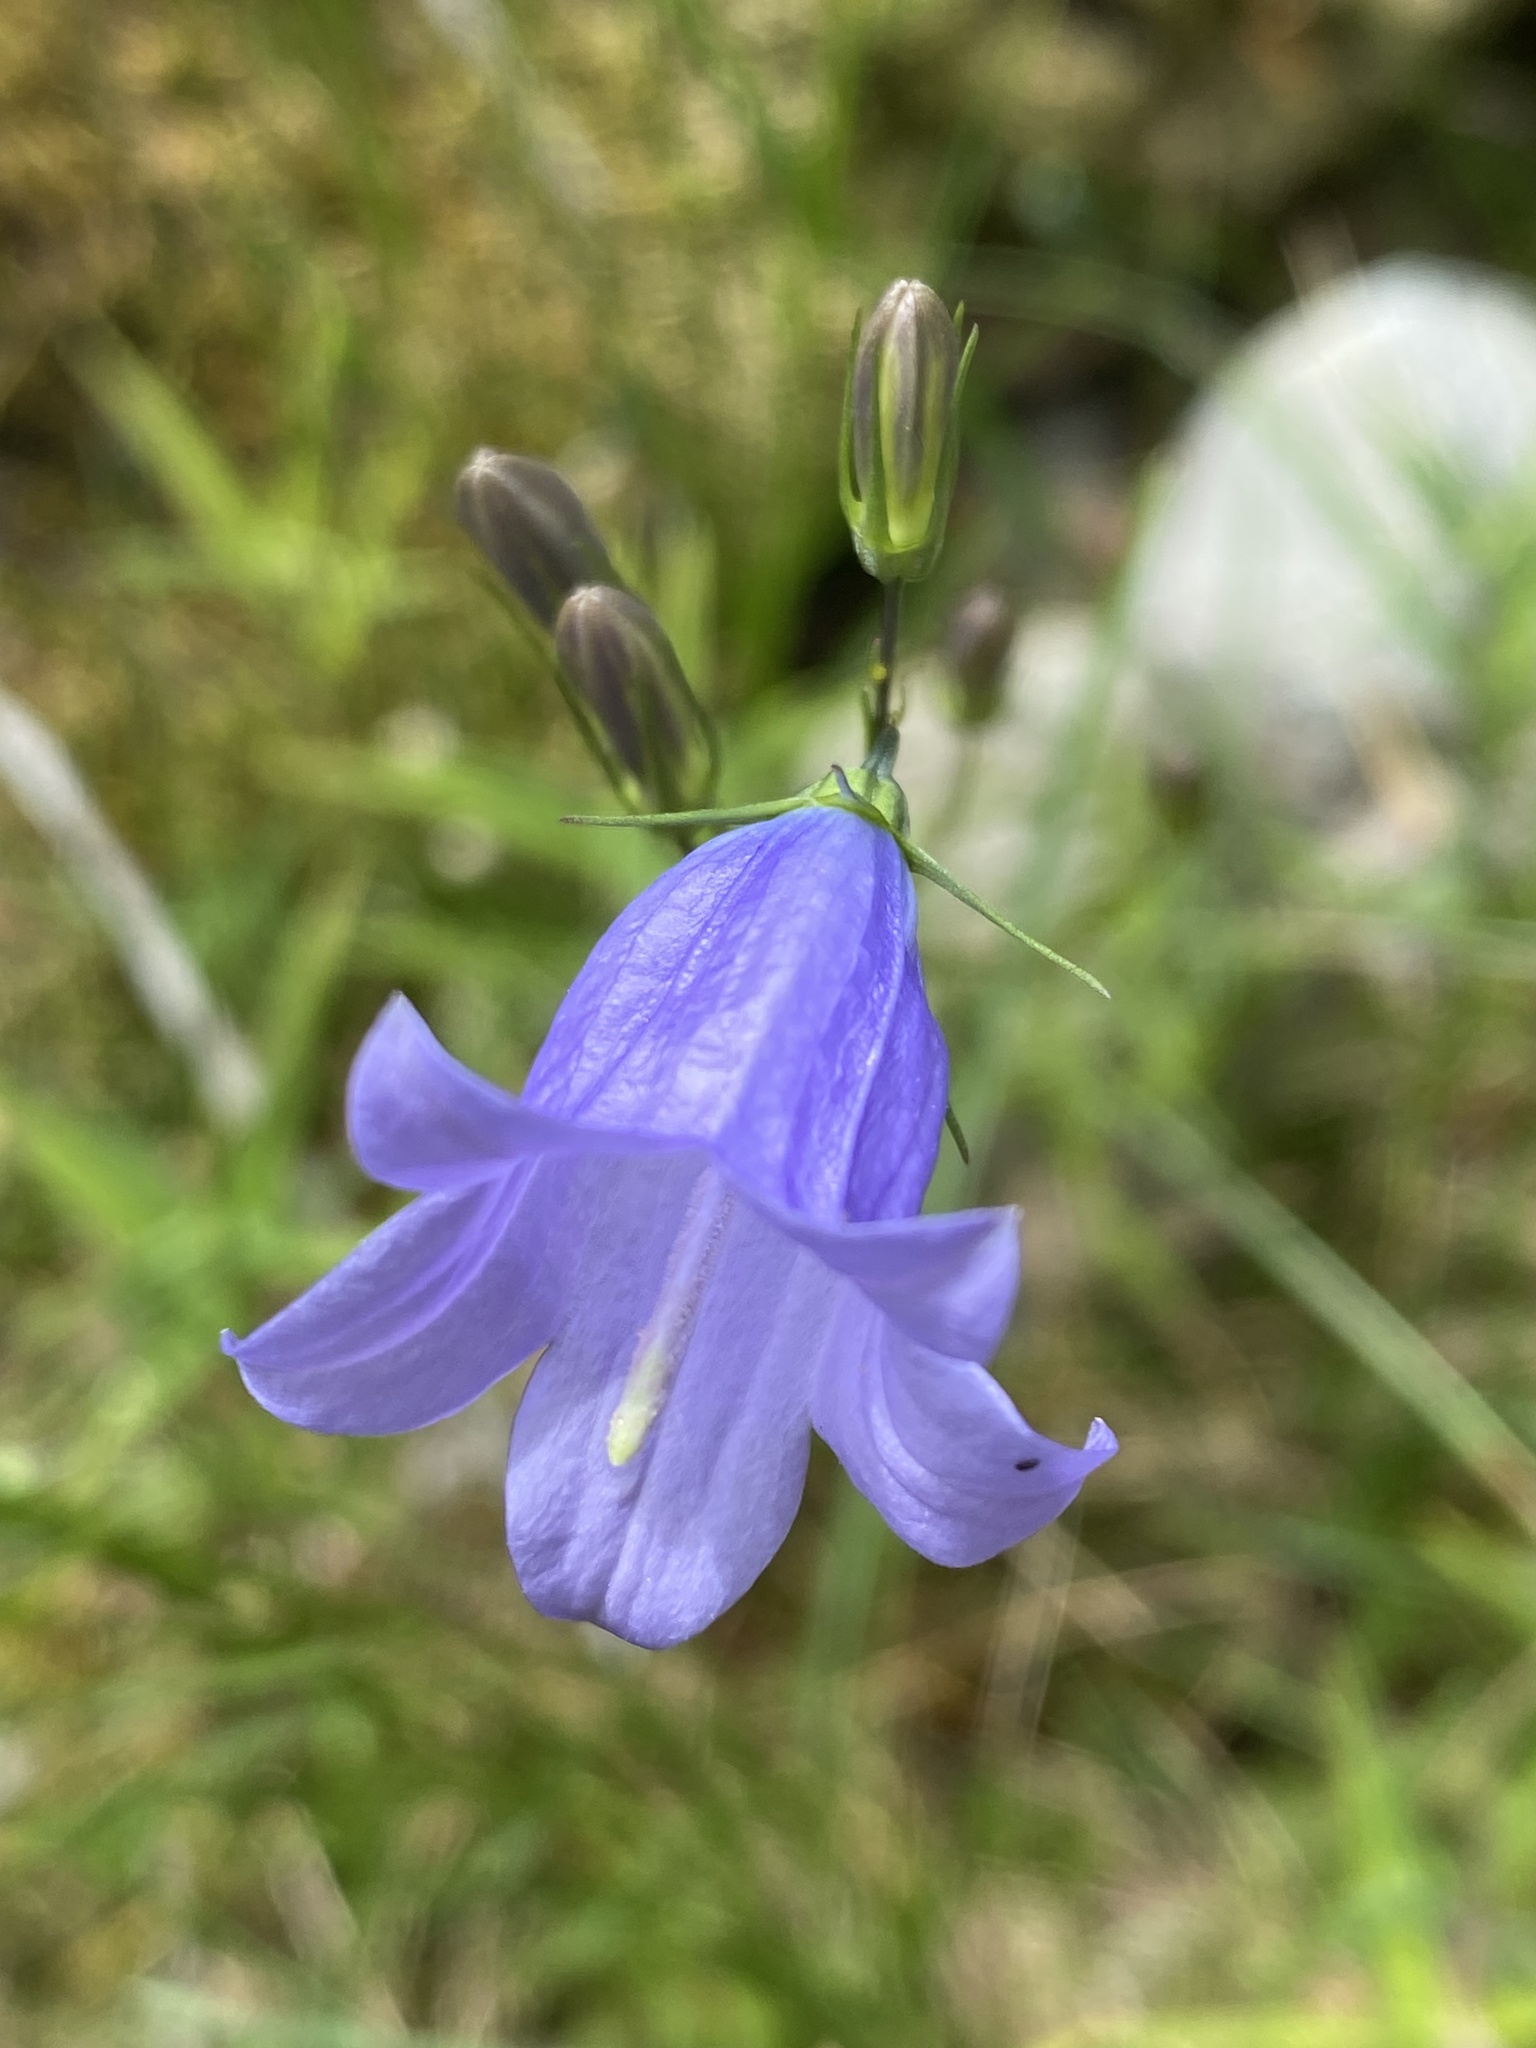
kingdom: Plantae
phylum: Tracheophyta
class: Magnoliopsida
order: Asterales
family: Campanulaceae
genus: Campanula
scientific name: Campanula rotundifolia
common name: Harebell
